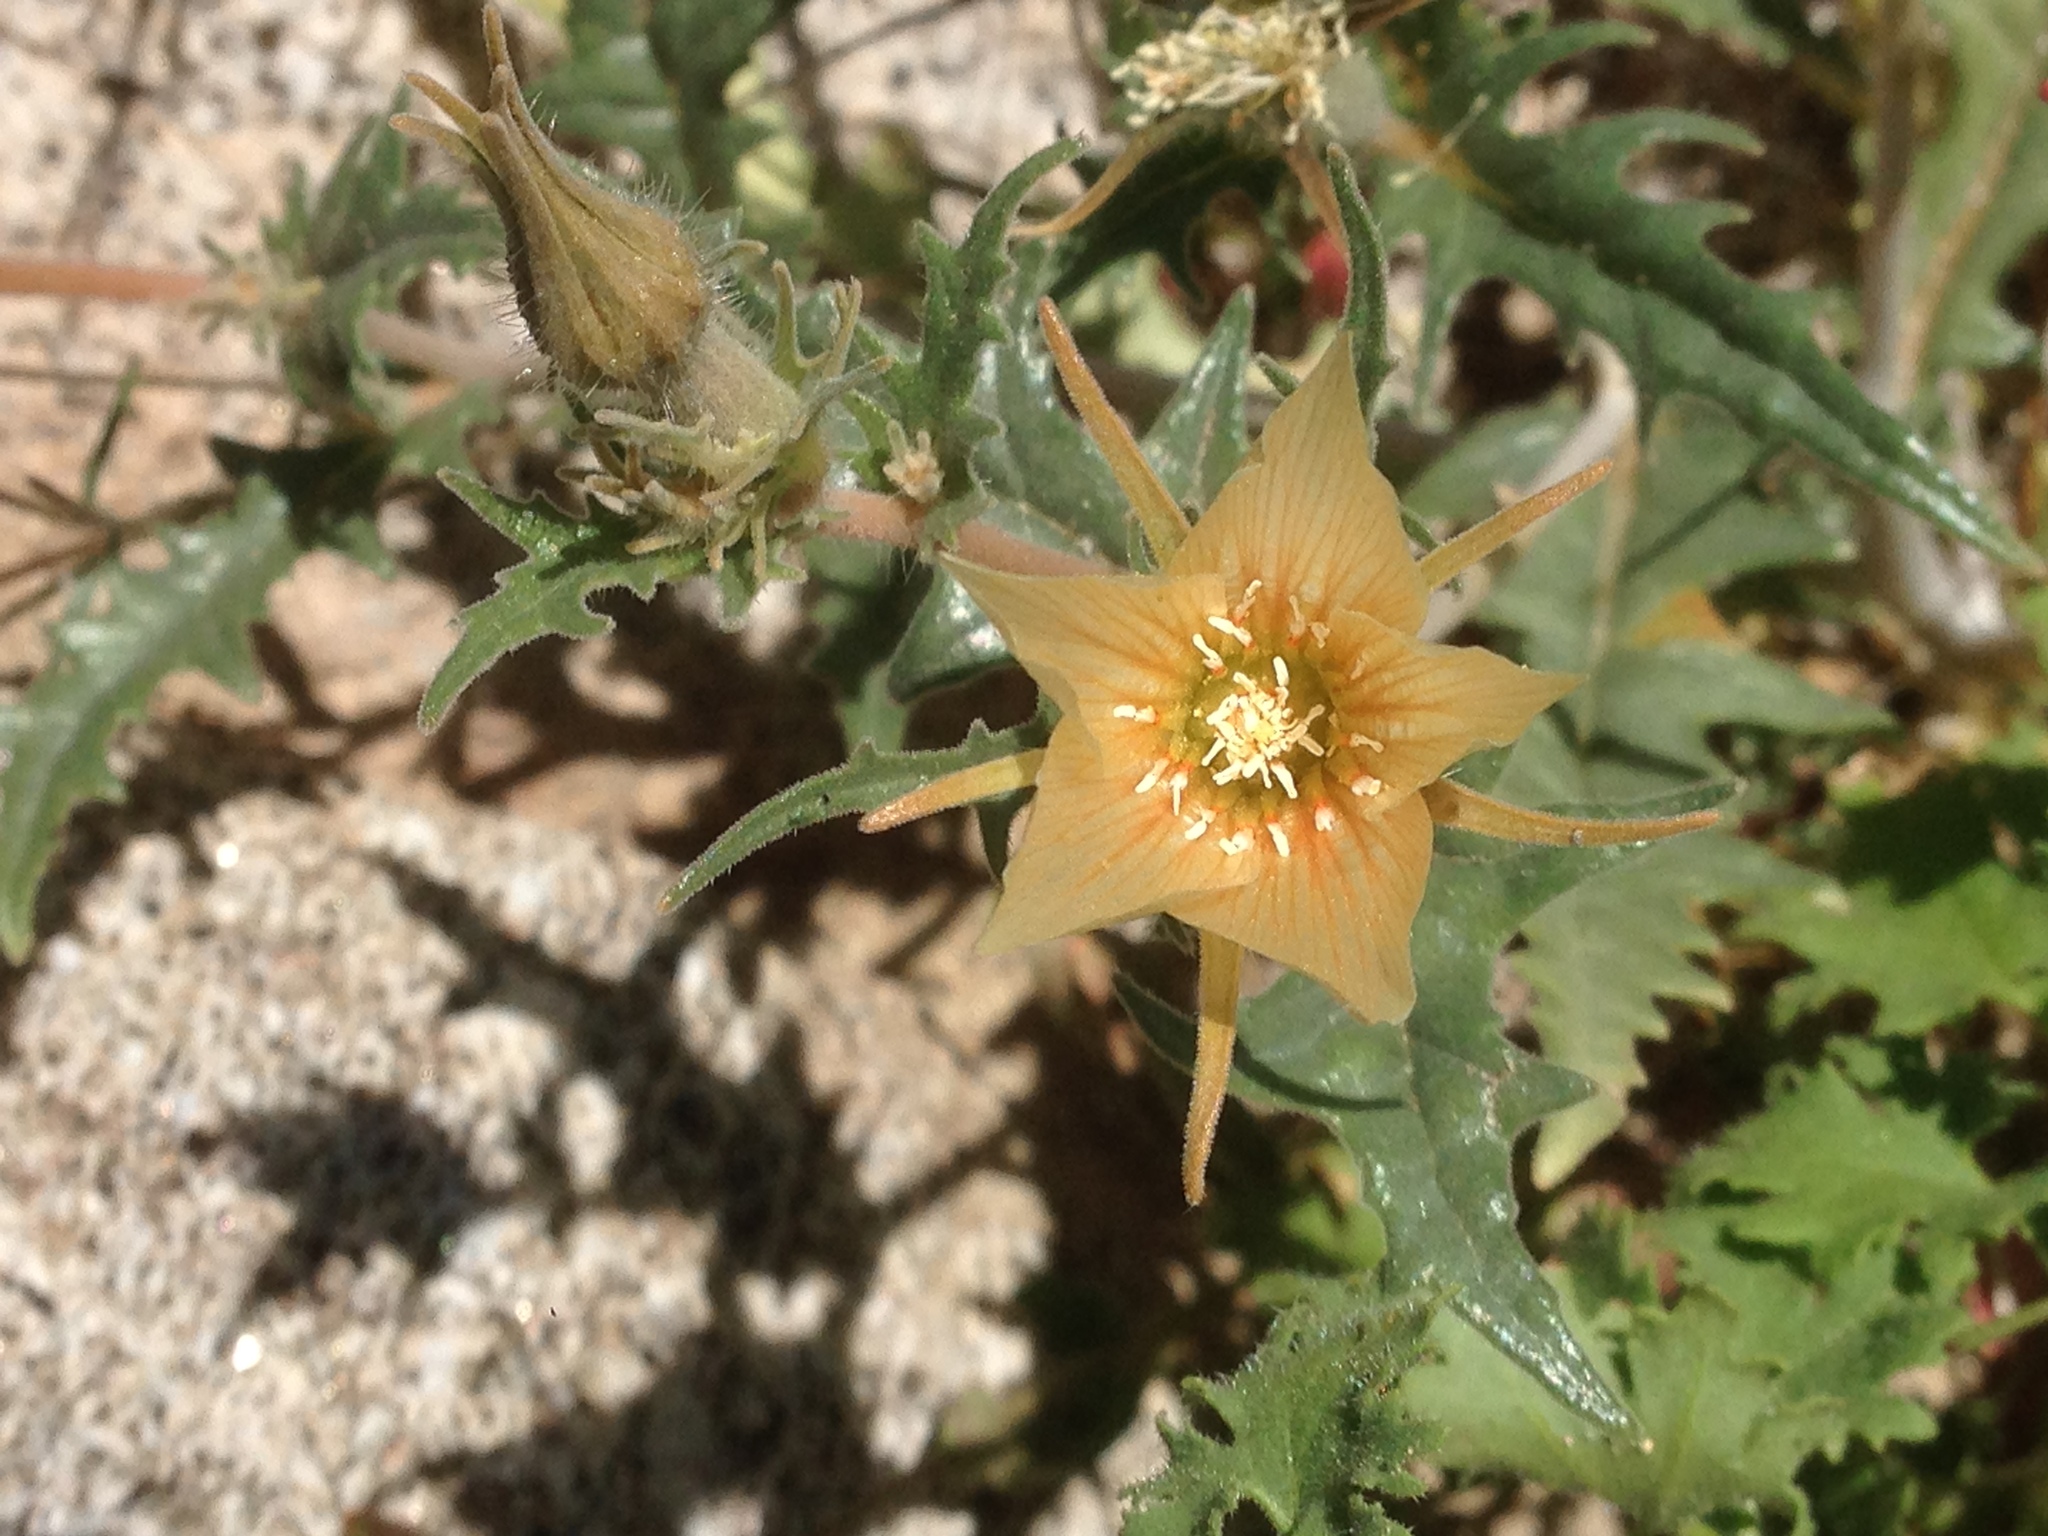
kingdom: Plantae
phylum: Tracheophyta
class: Magnoliopsida
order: Cornales
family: Loasaceae
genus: Mentzelia
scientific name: Mentzelia hirsutissima
